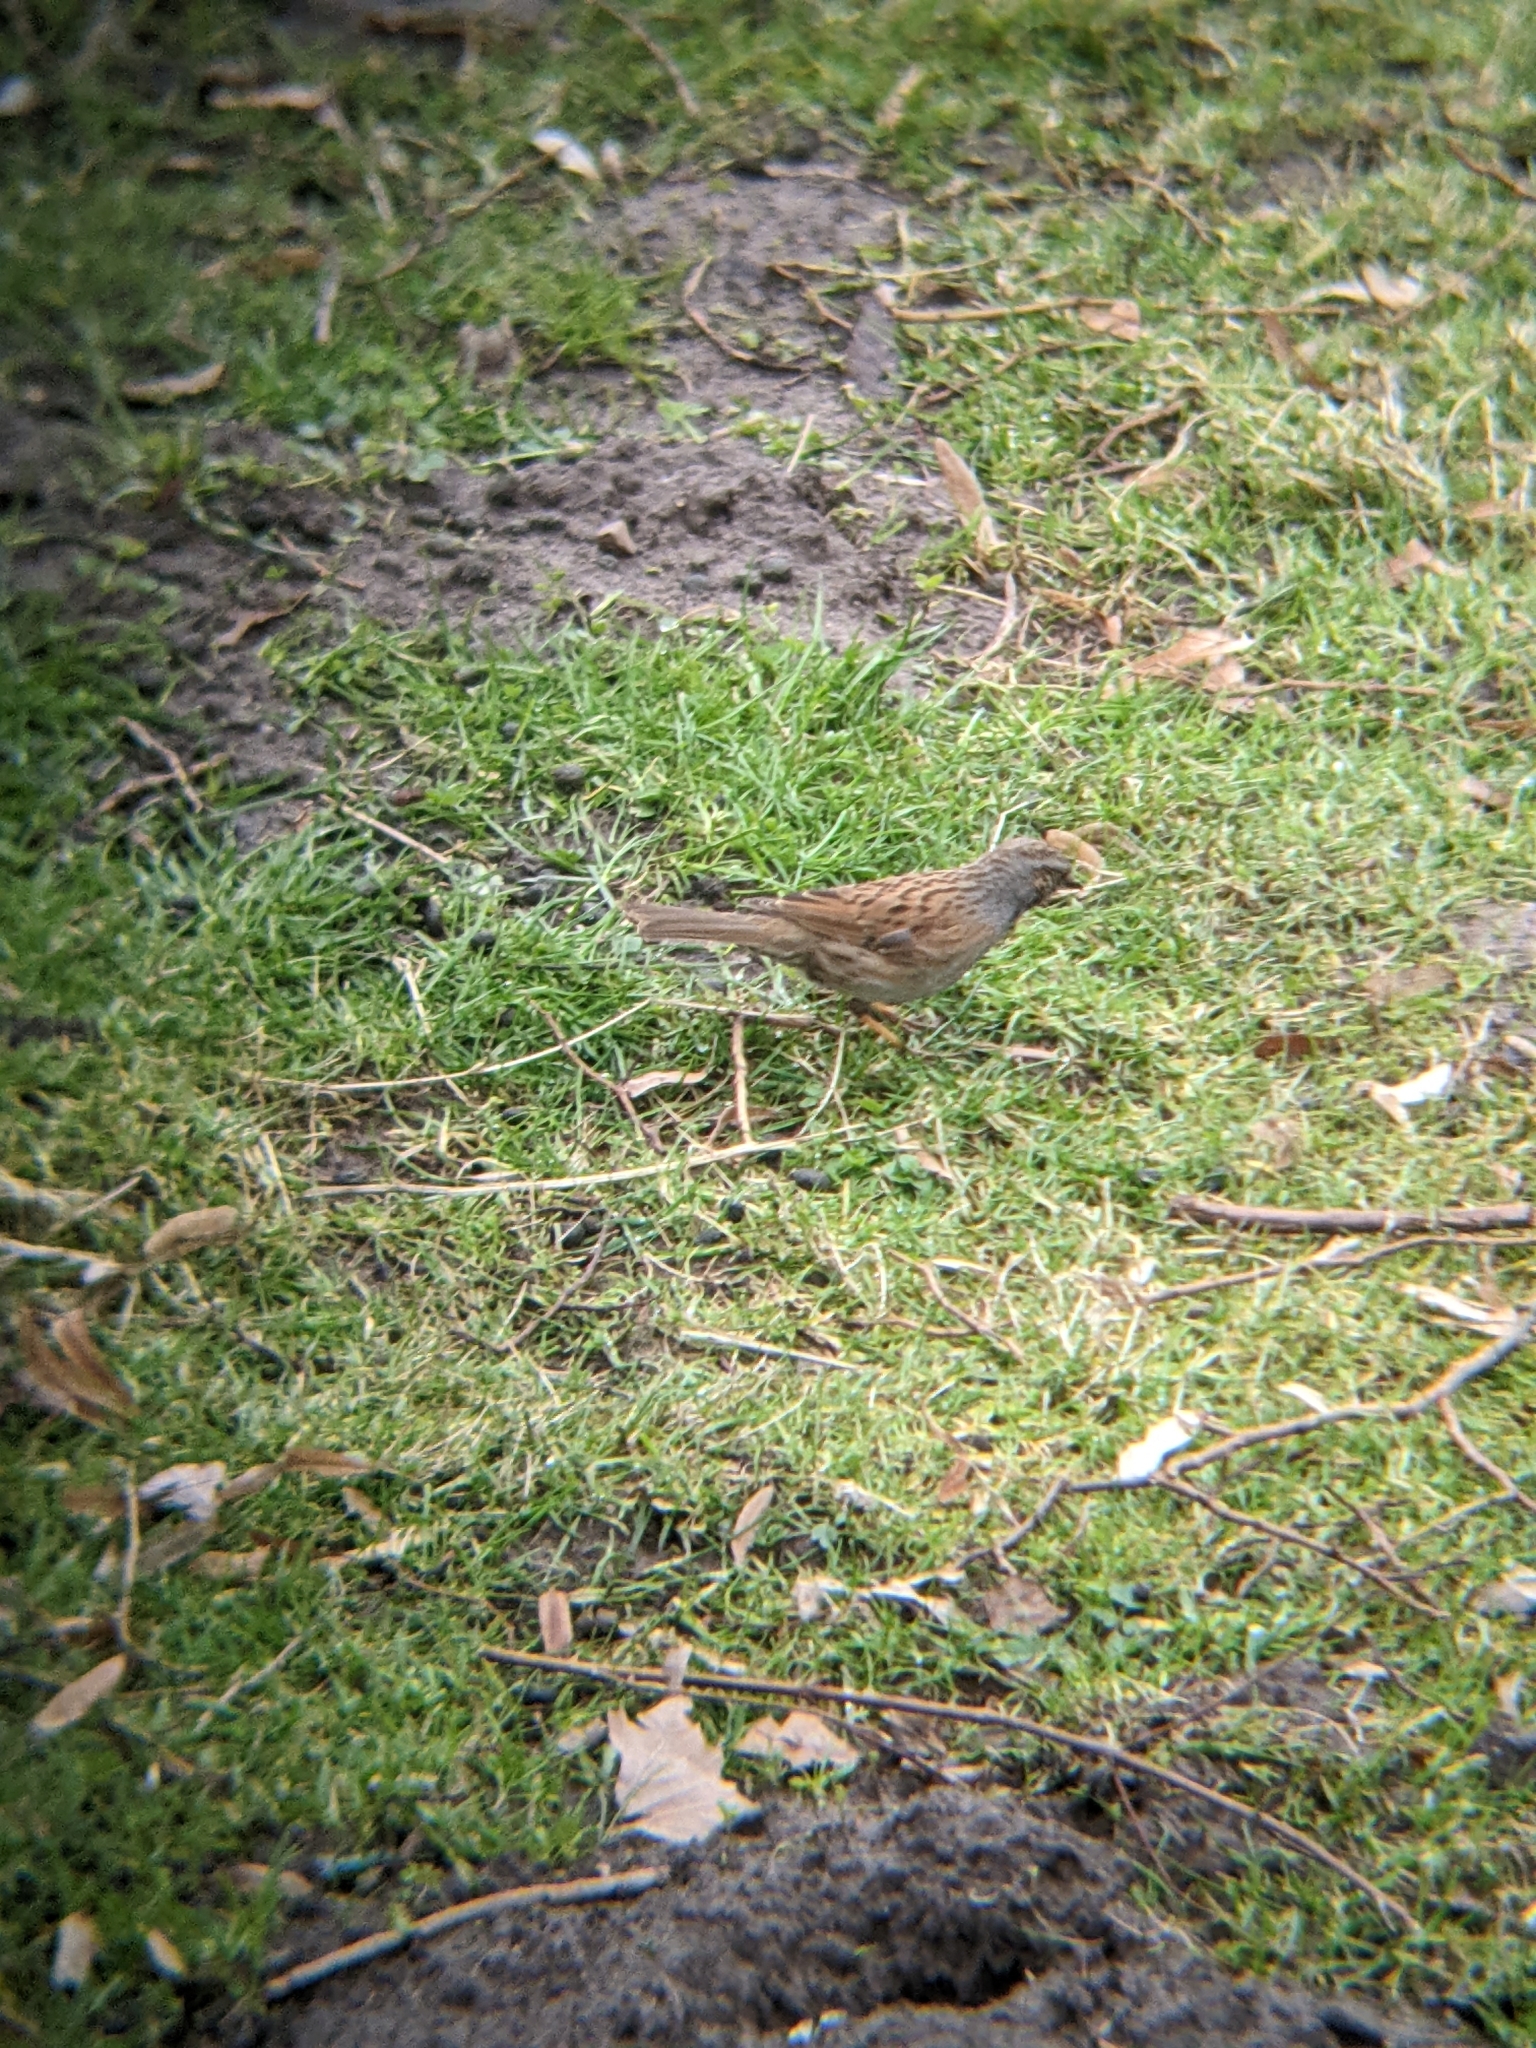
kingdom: Animalia
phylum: Chordata
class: Aves
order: Passeriformes
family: Prunellidae
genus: Prunella
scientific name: Prunella modularis
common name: Dunnock
